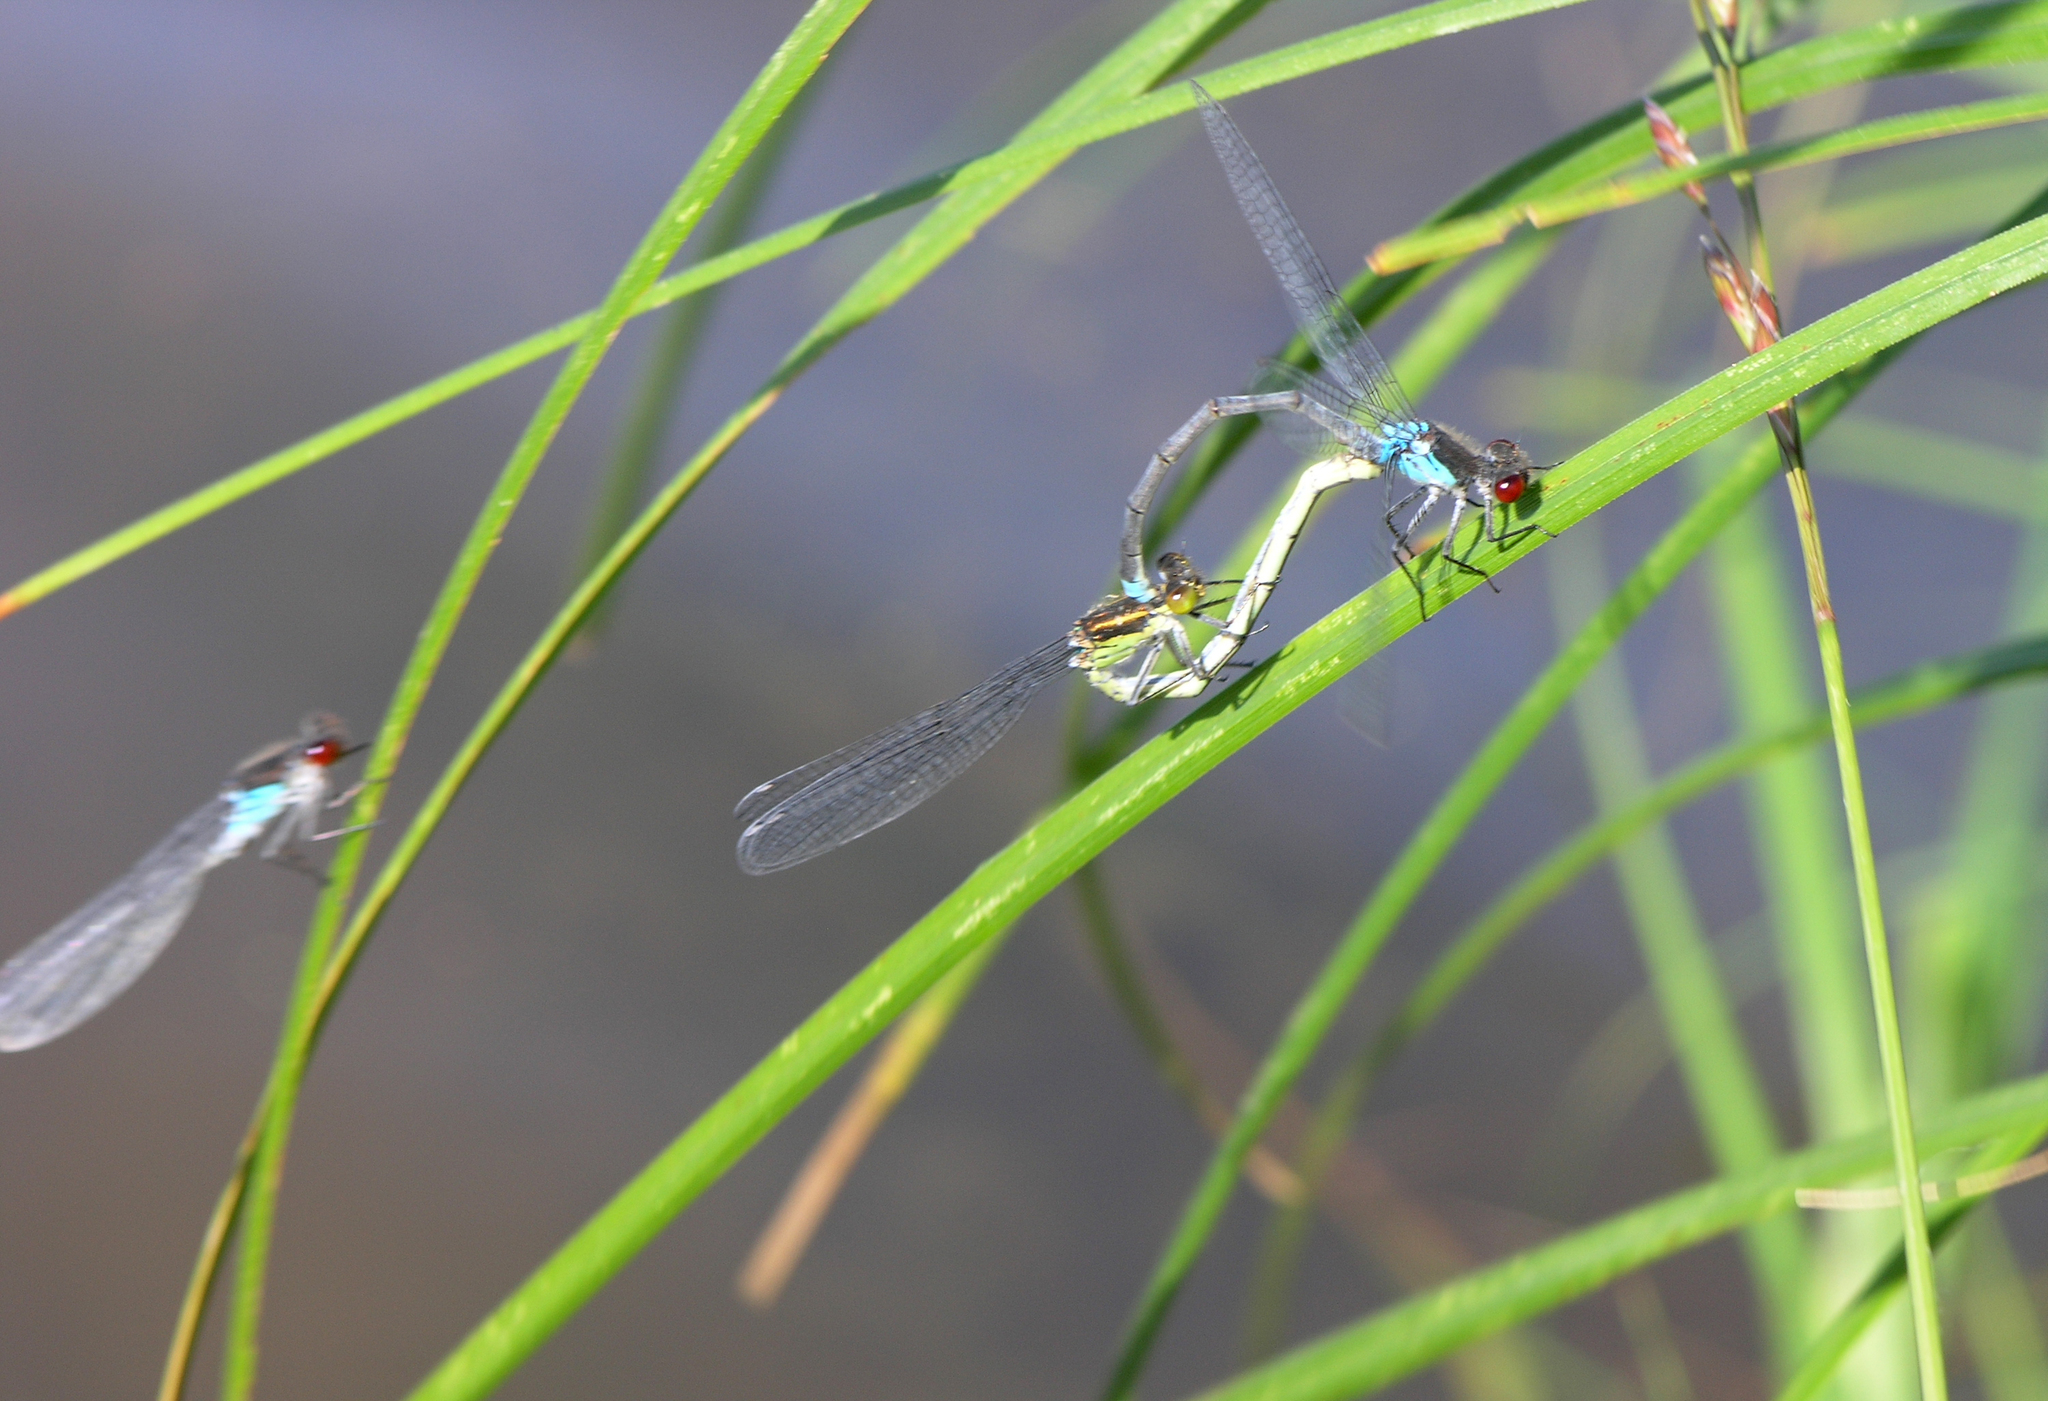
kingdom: Animalia
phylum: Arthropoda
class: Insecta
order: Odonata
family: Coenagrionidae
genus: Erythromma
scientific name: Erythromma najas
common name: Red-eyed damselfly
